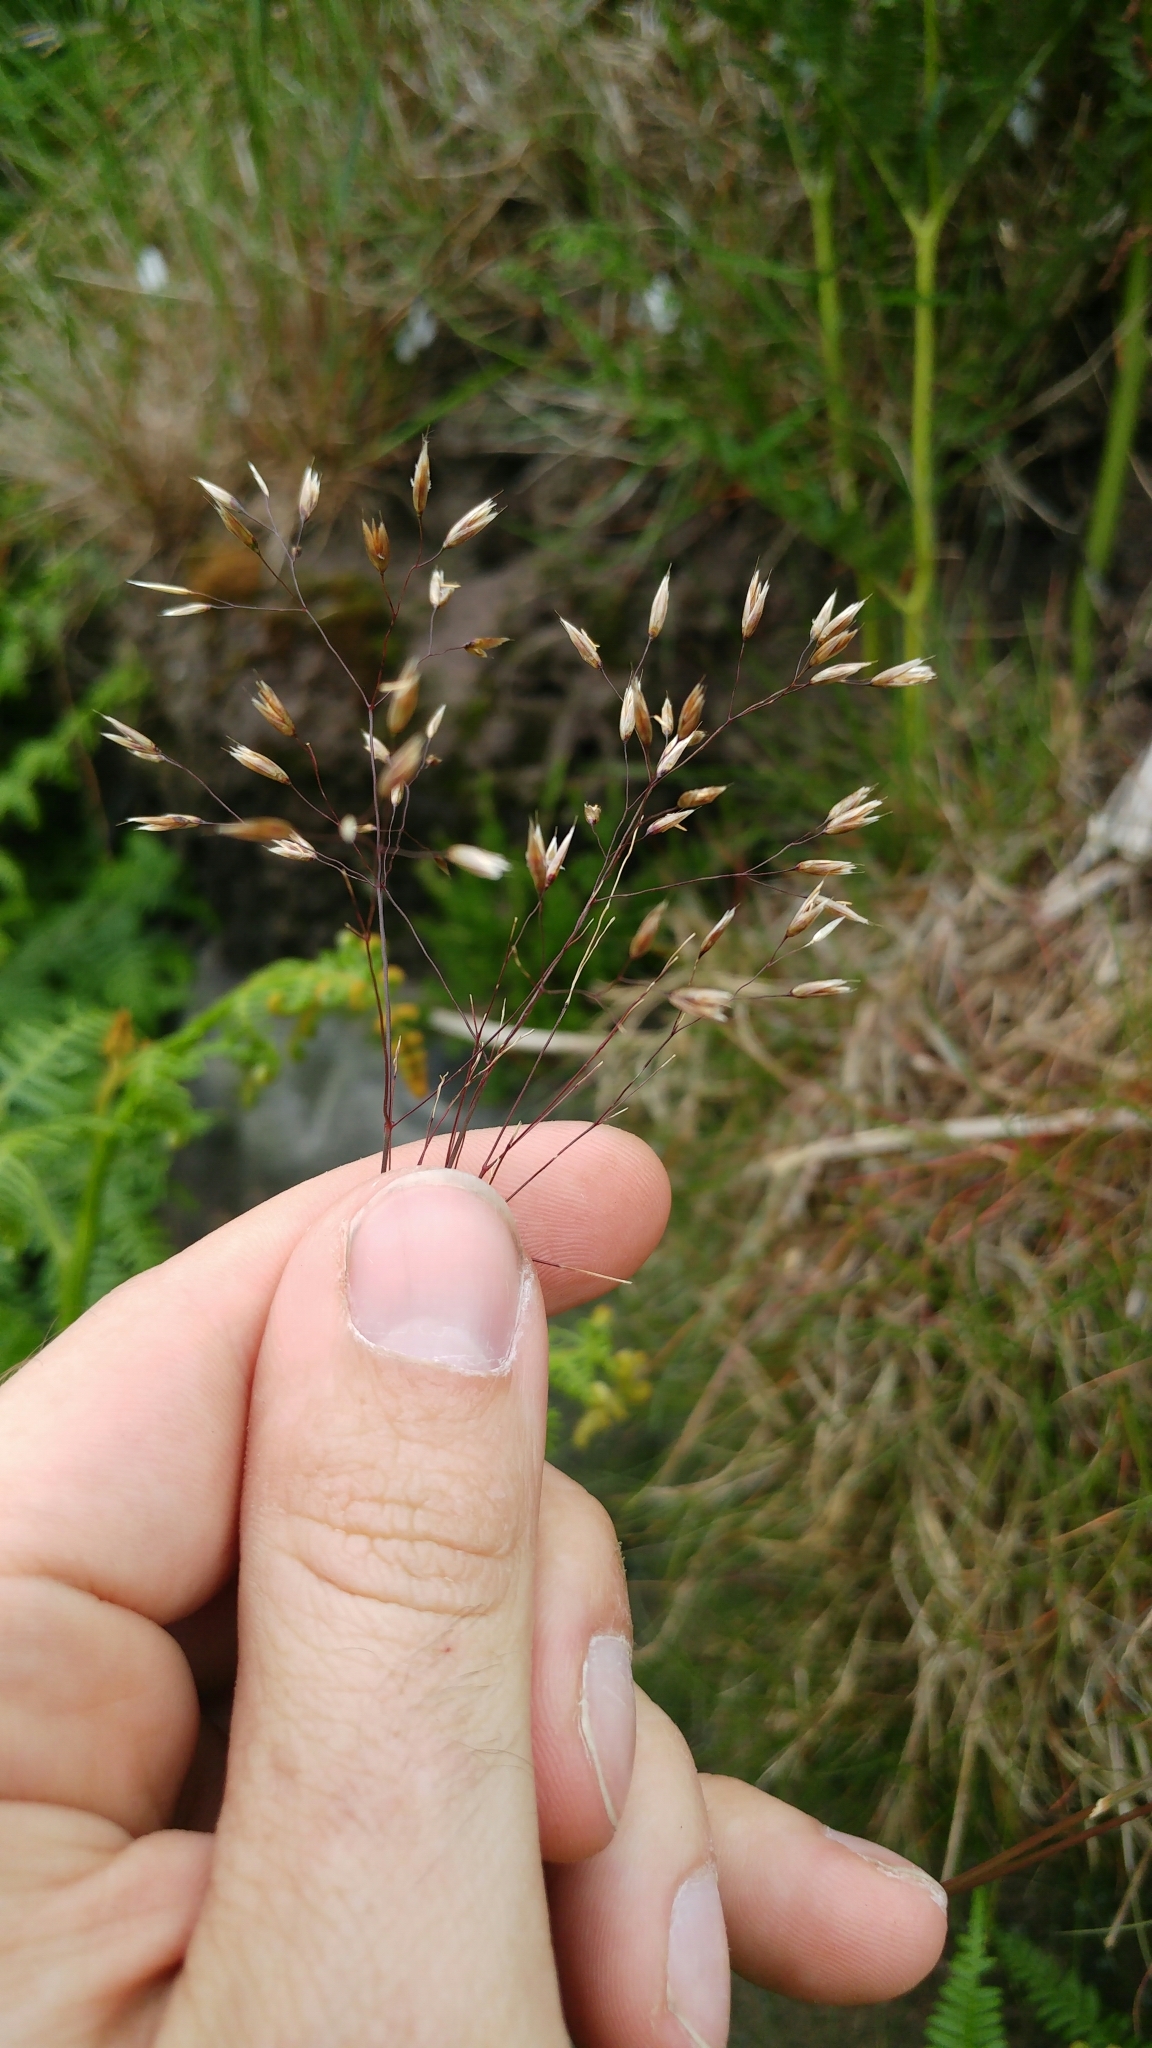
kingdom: Plantae
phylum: Tracheophyta
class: Liliopsida
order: Poales
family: Poaceae
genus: Aira
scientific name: Aira caryophyllea
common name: Silver hairgrass
